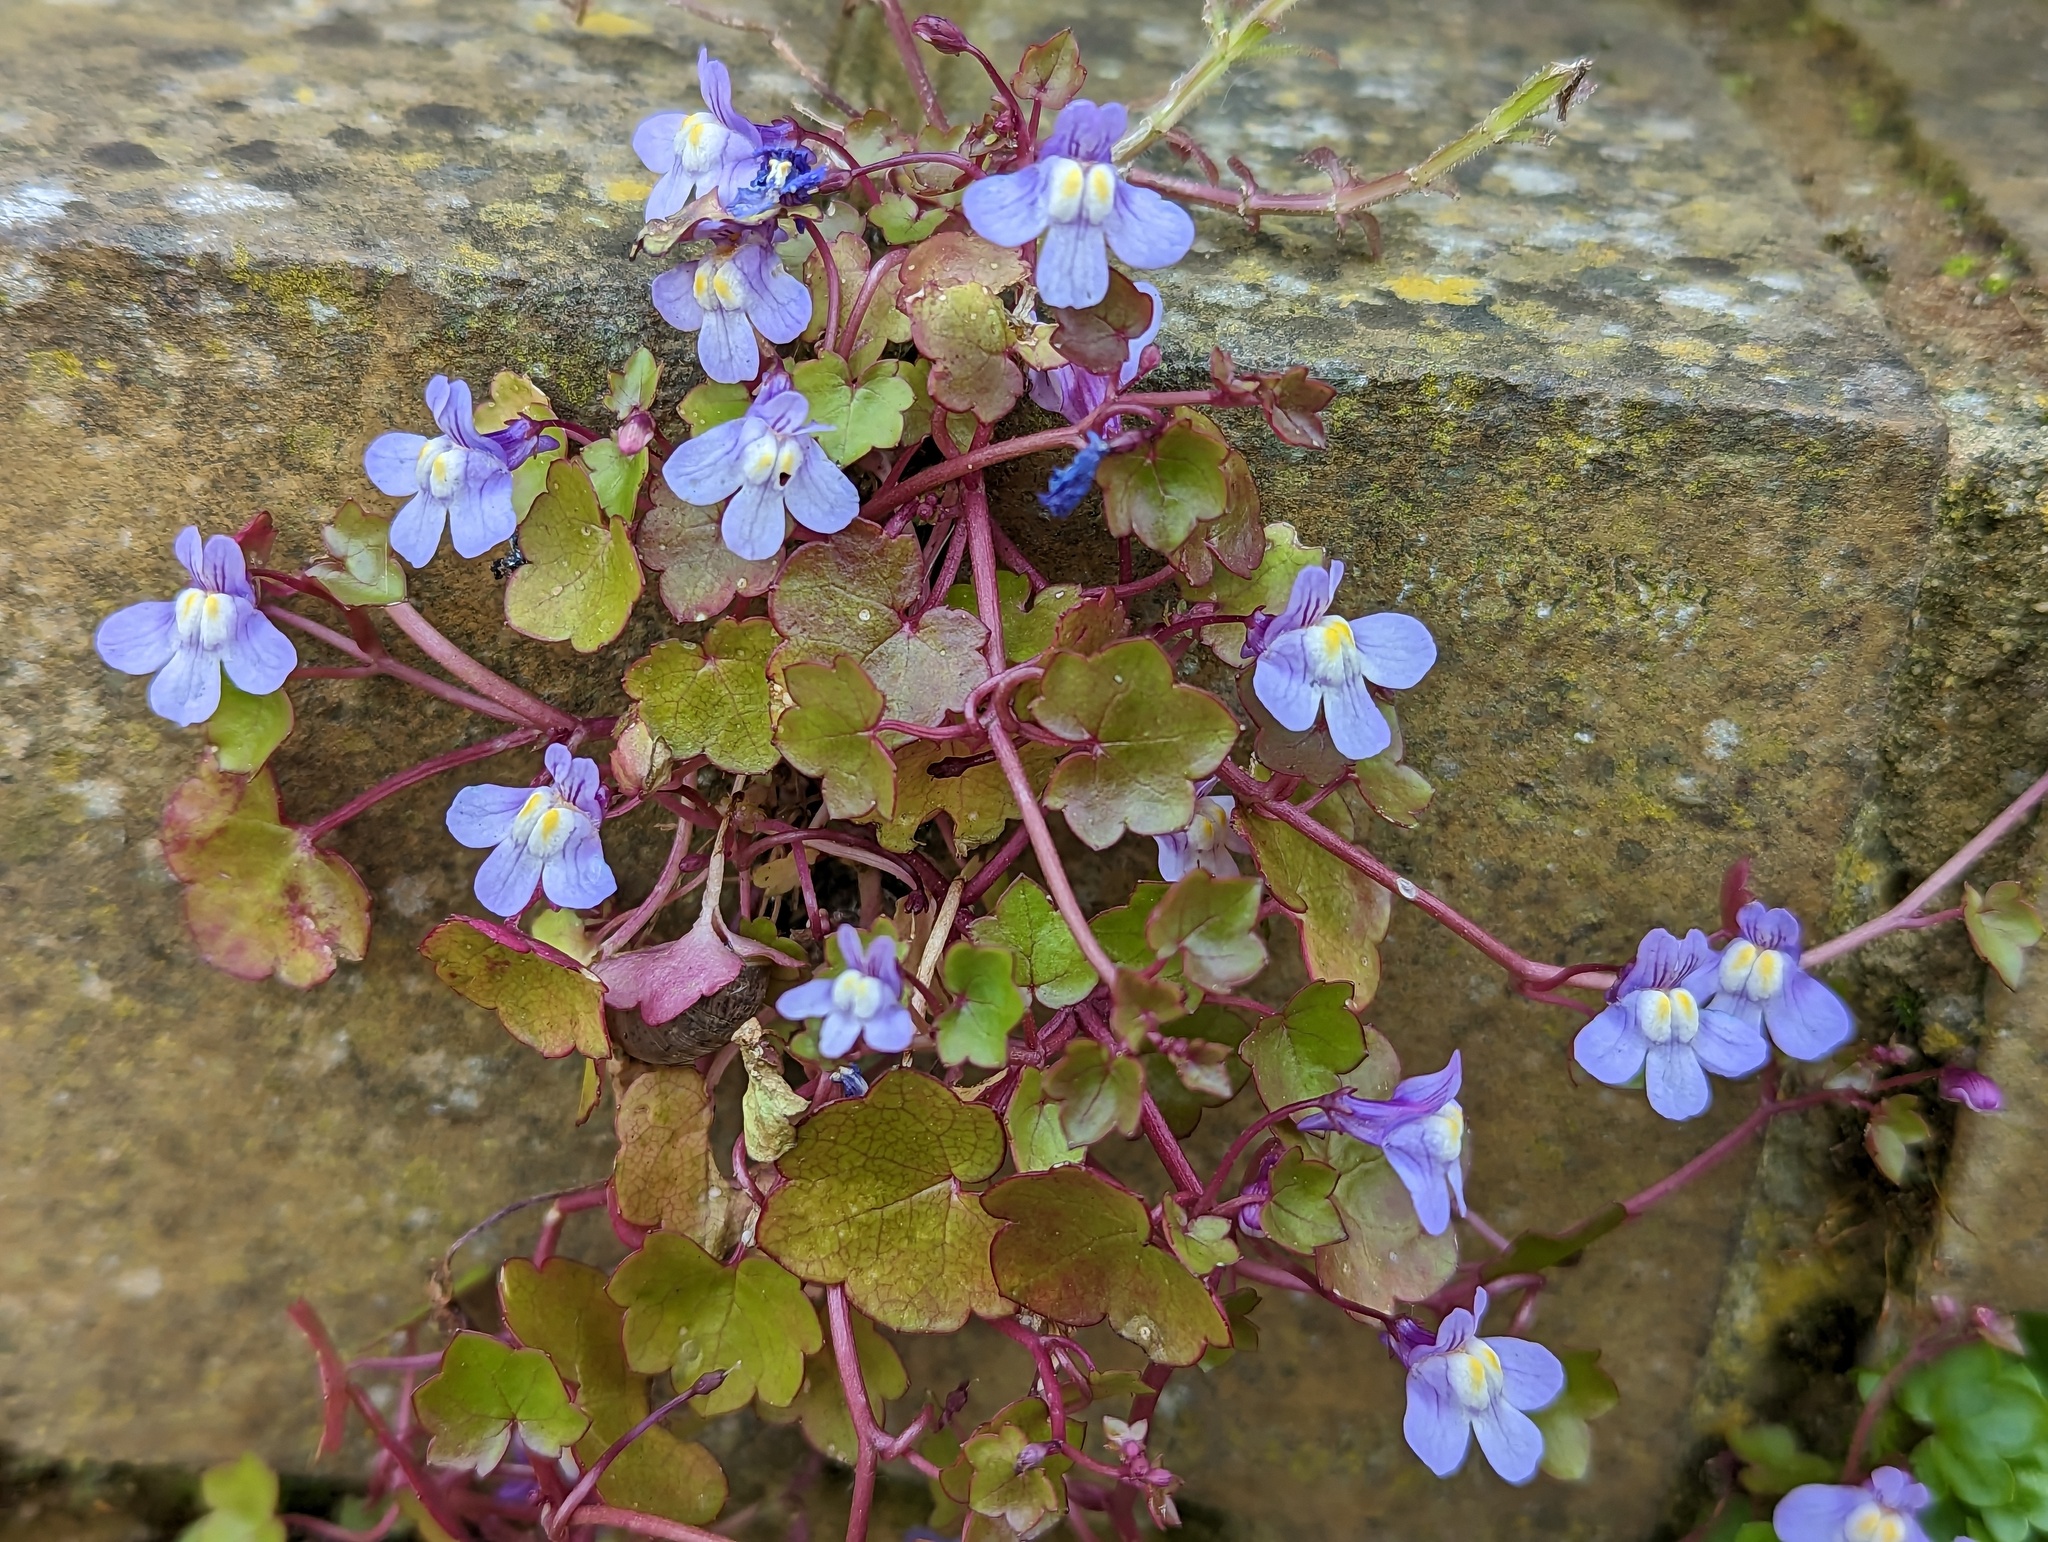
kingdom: Plantae
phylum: Tracheophyta
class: Magnoliopsida
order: Lamiales
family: Plantaginaceae
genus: Cymbalaria
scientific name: Cymbalaria muralis
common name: Ivy-leaved toadflax
